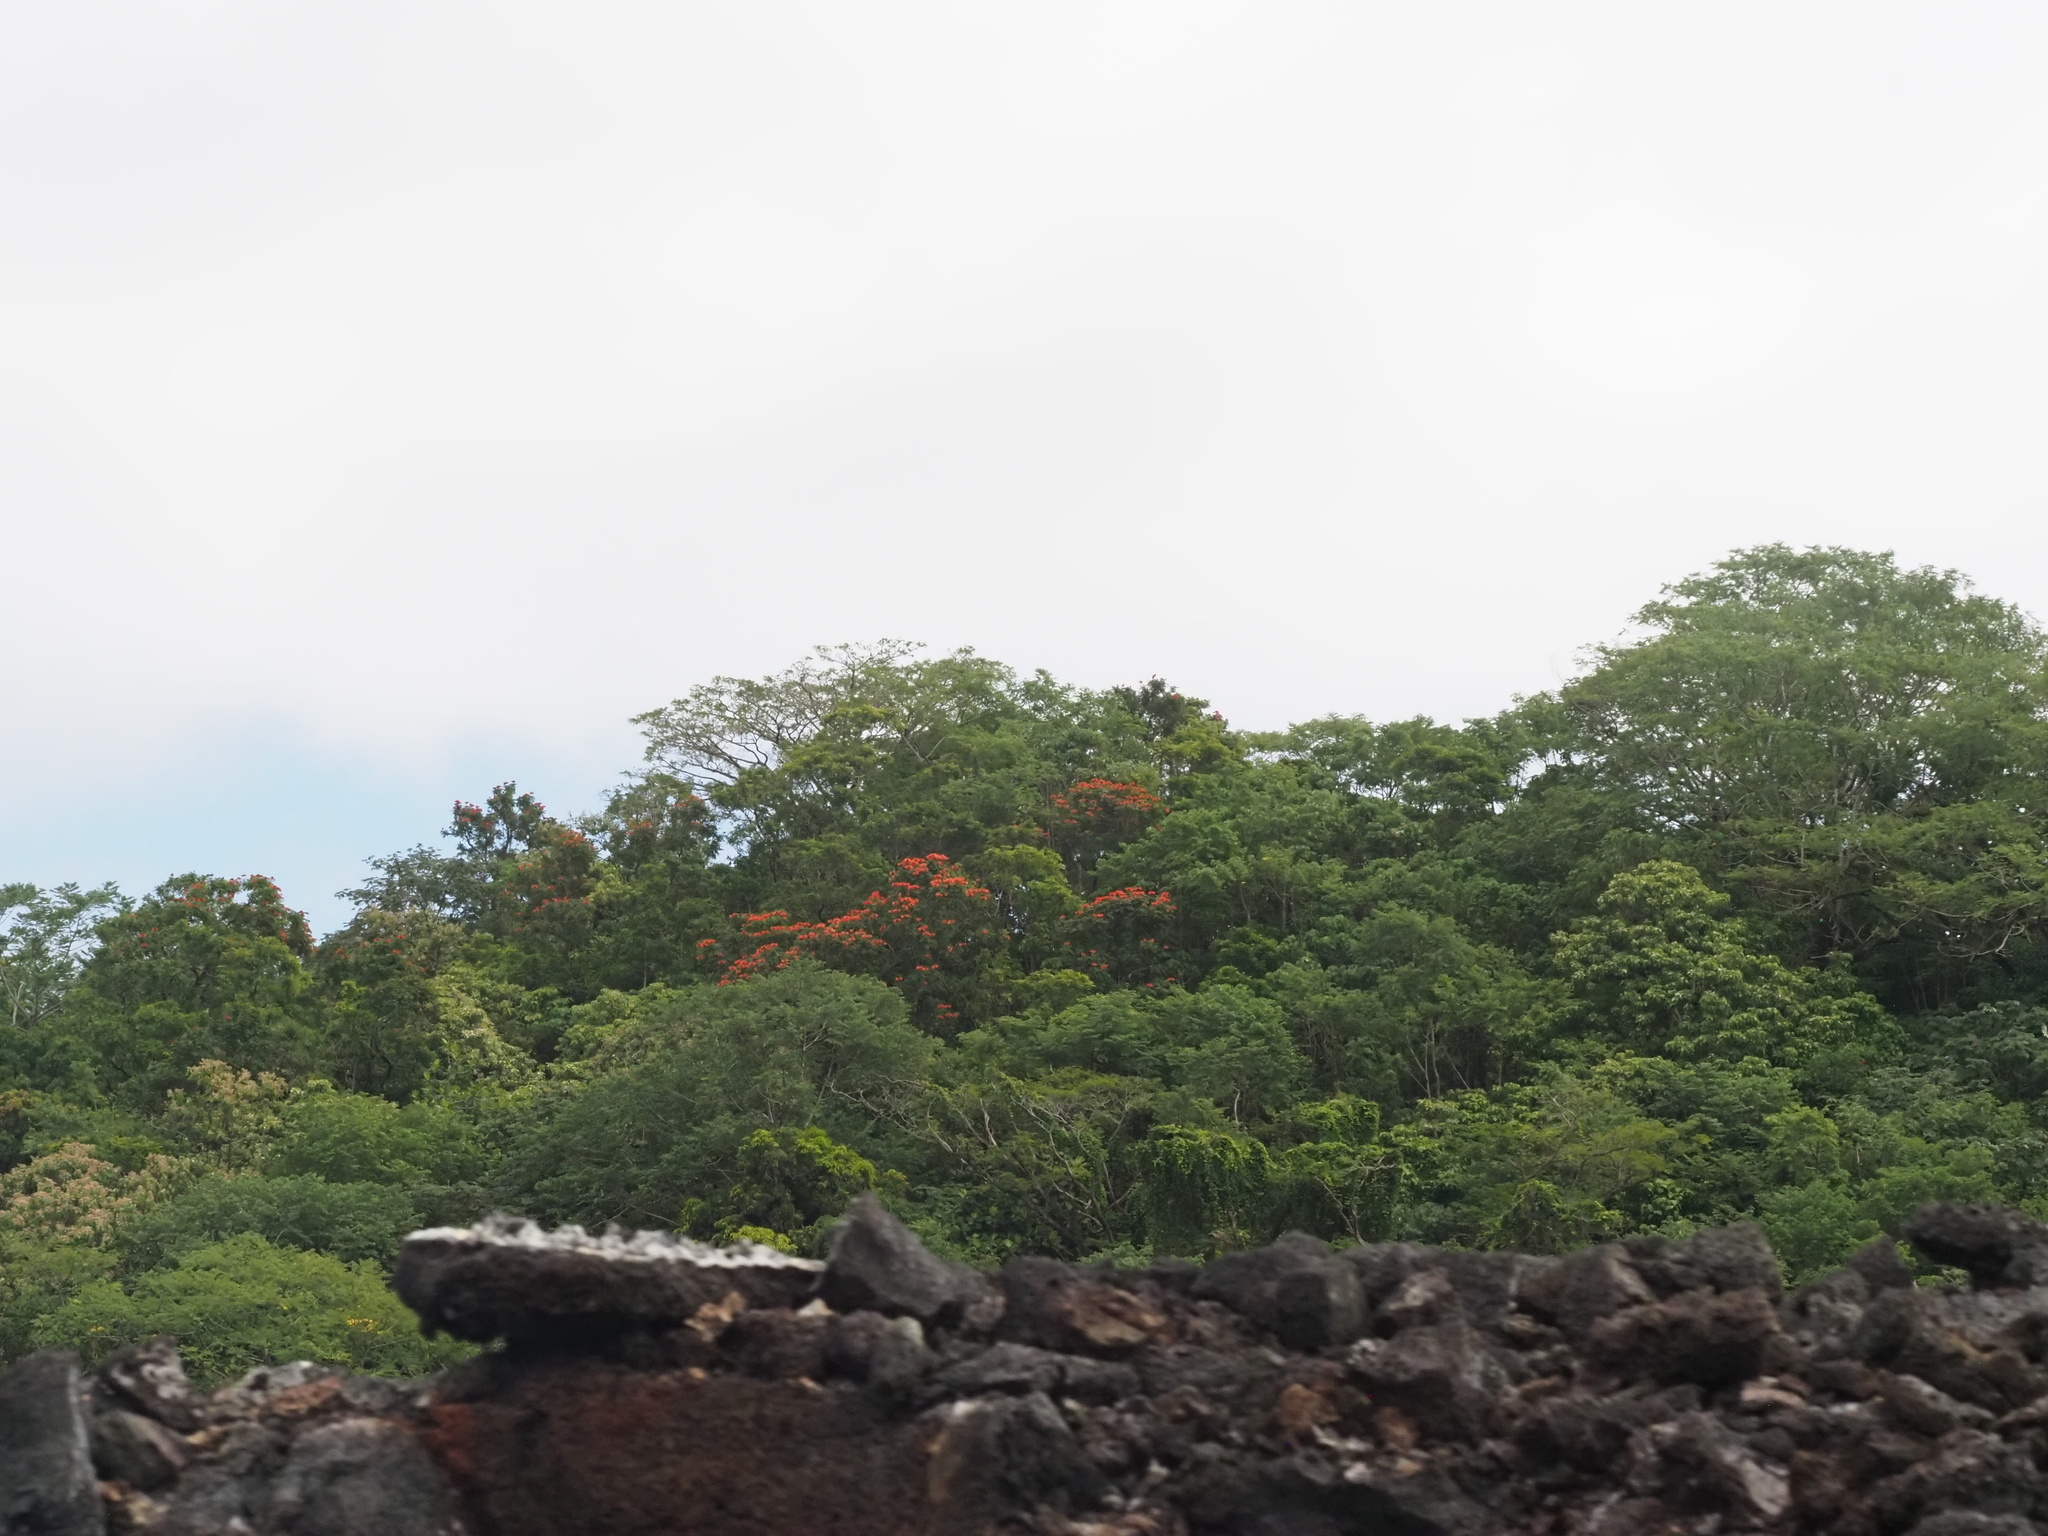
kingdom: Plantae
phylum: Tracheophyta
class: Magnoliopsida
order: Lamiales
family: Bignoniaceae
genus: Spathodea
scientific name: Spathodea campanulata
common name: African tuliptree
